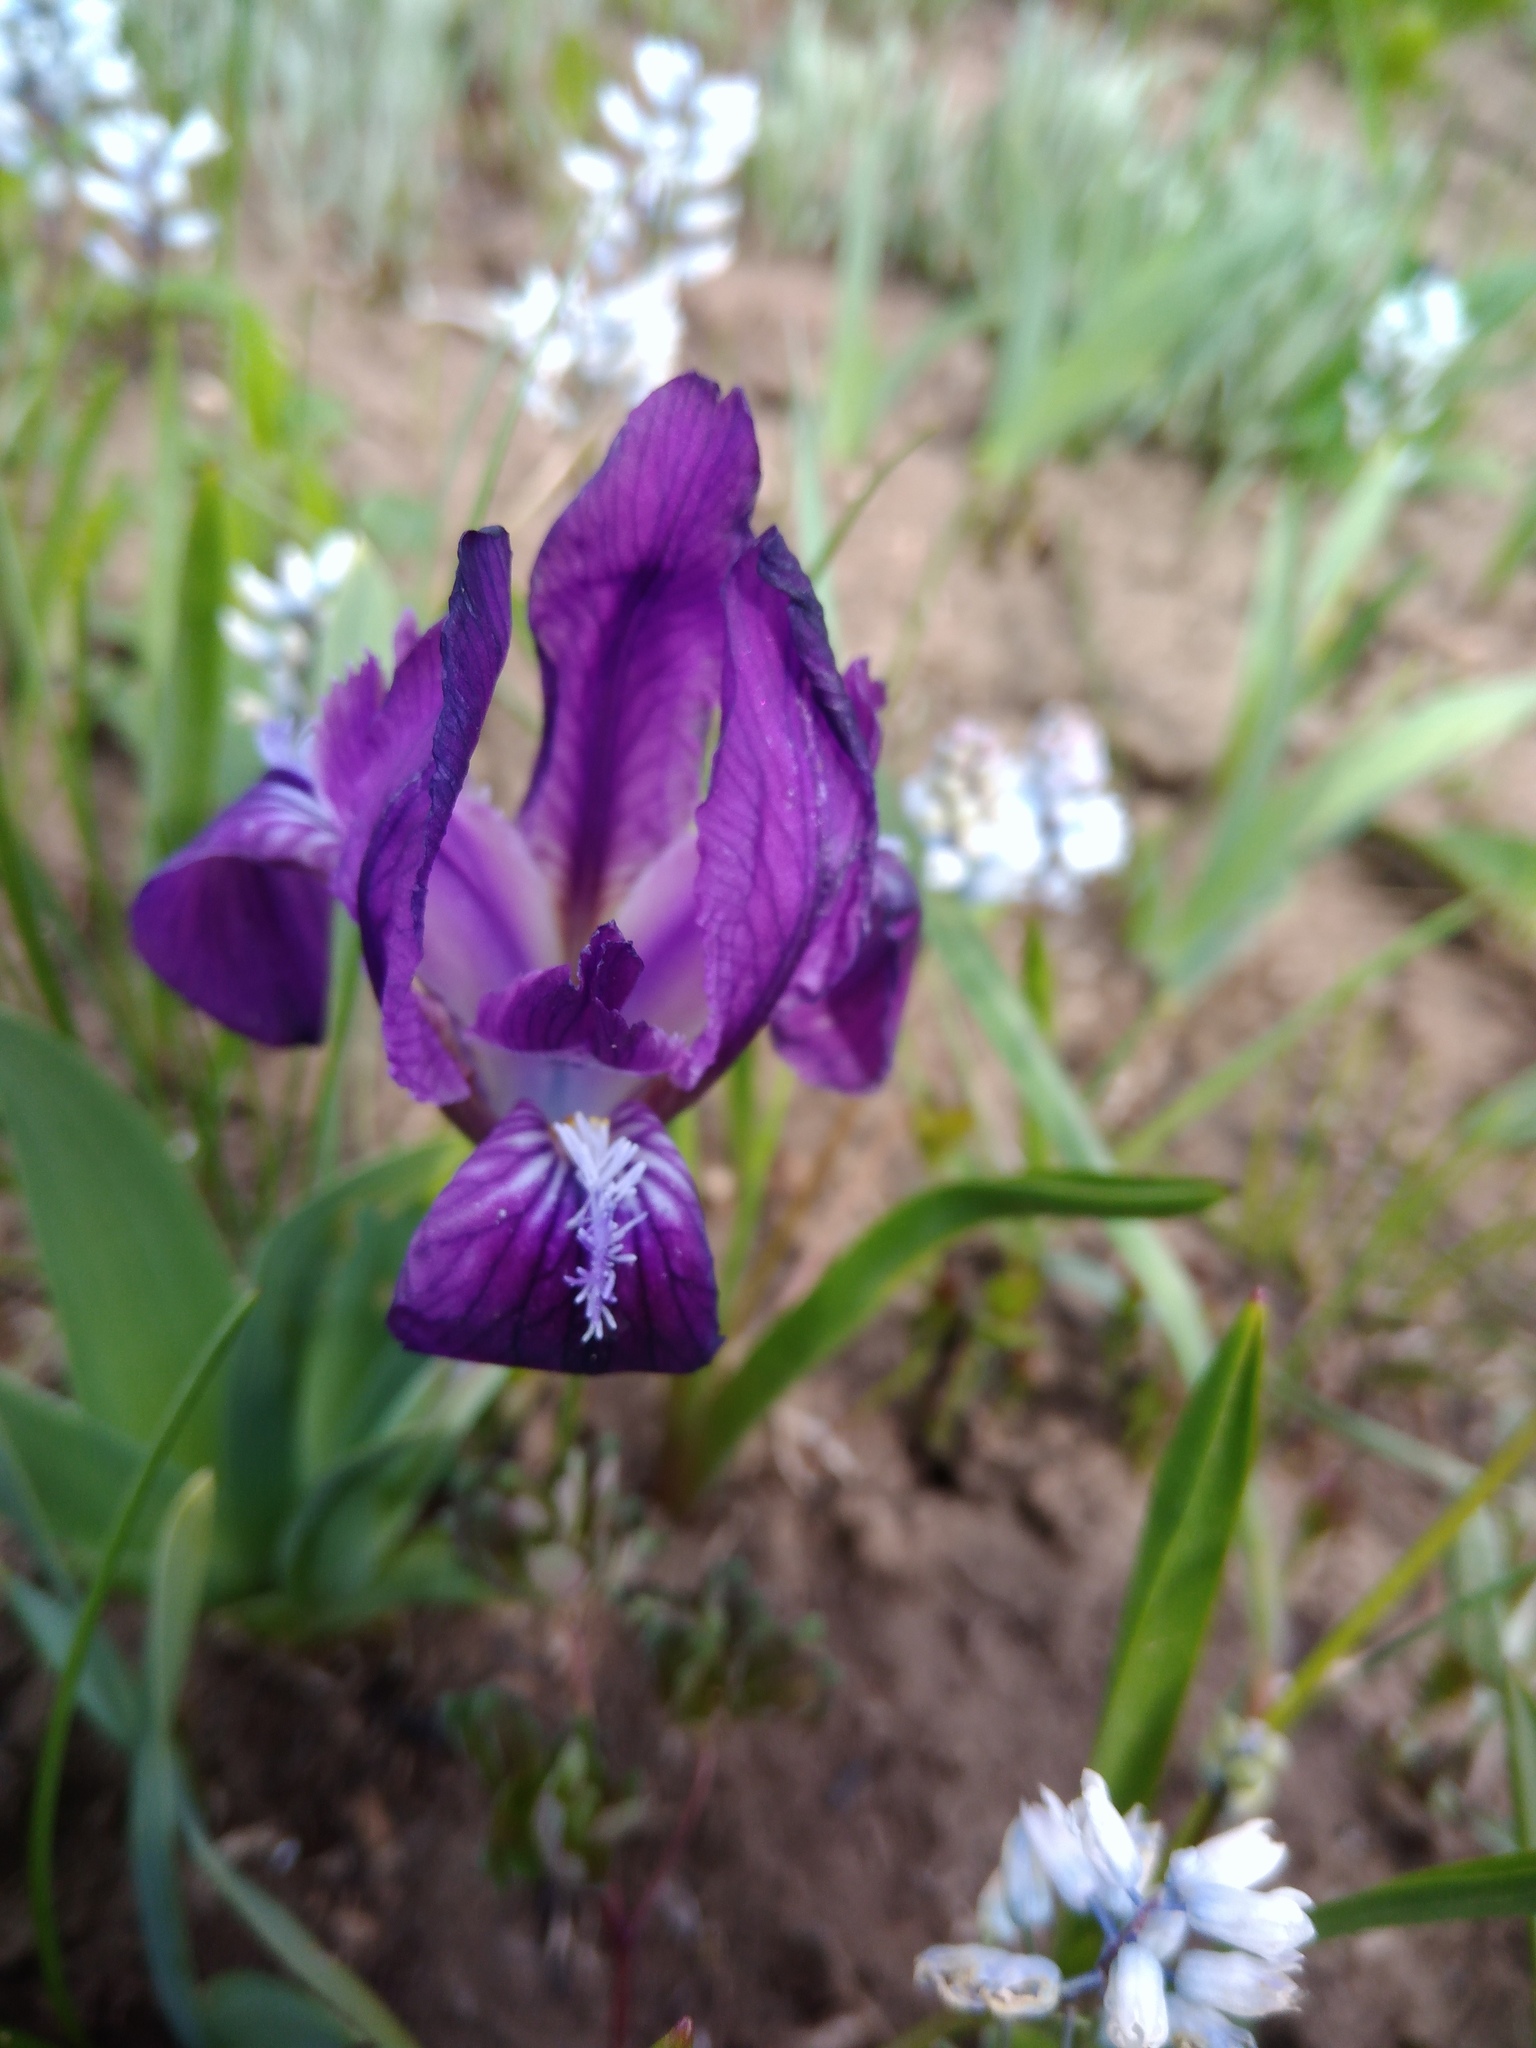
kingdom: Plantae
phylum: Tracheophyta
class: Liliopsida
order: Asparagales
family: Iridaceae
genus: Iris
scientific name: Iris pumila
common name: Dwarf iris
